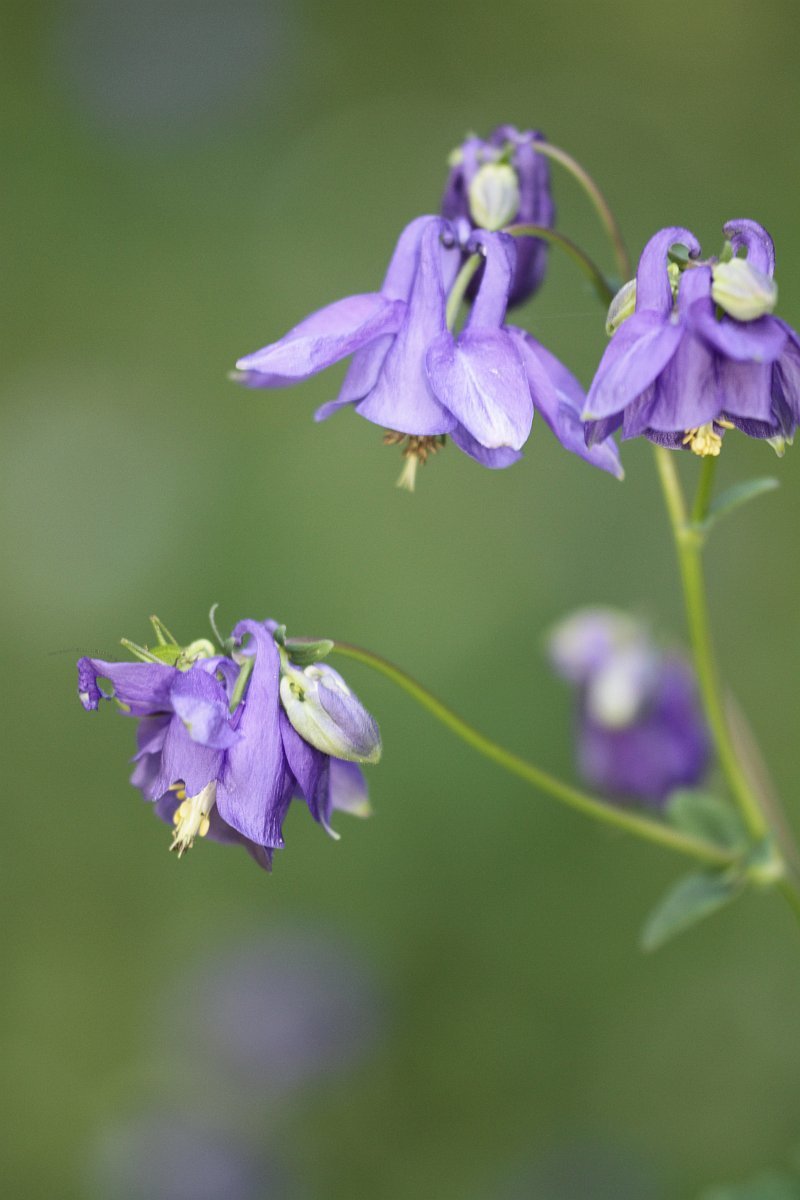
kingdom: Plantae
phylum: Tracheophyta
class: Magnoliopsida
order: Ranunculales
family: Ranunculaceae
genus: Aquilegia
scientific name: Aquilegia vulgaris
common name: Columbine
